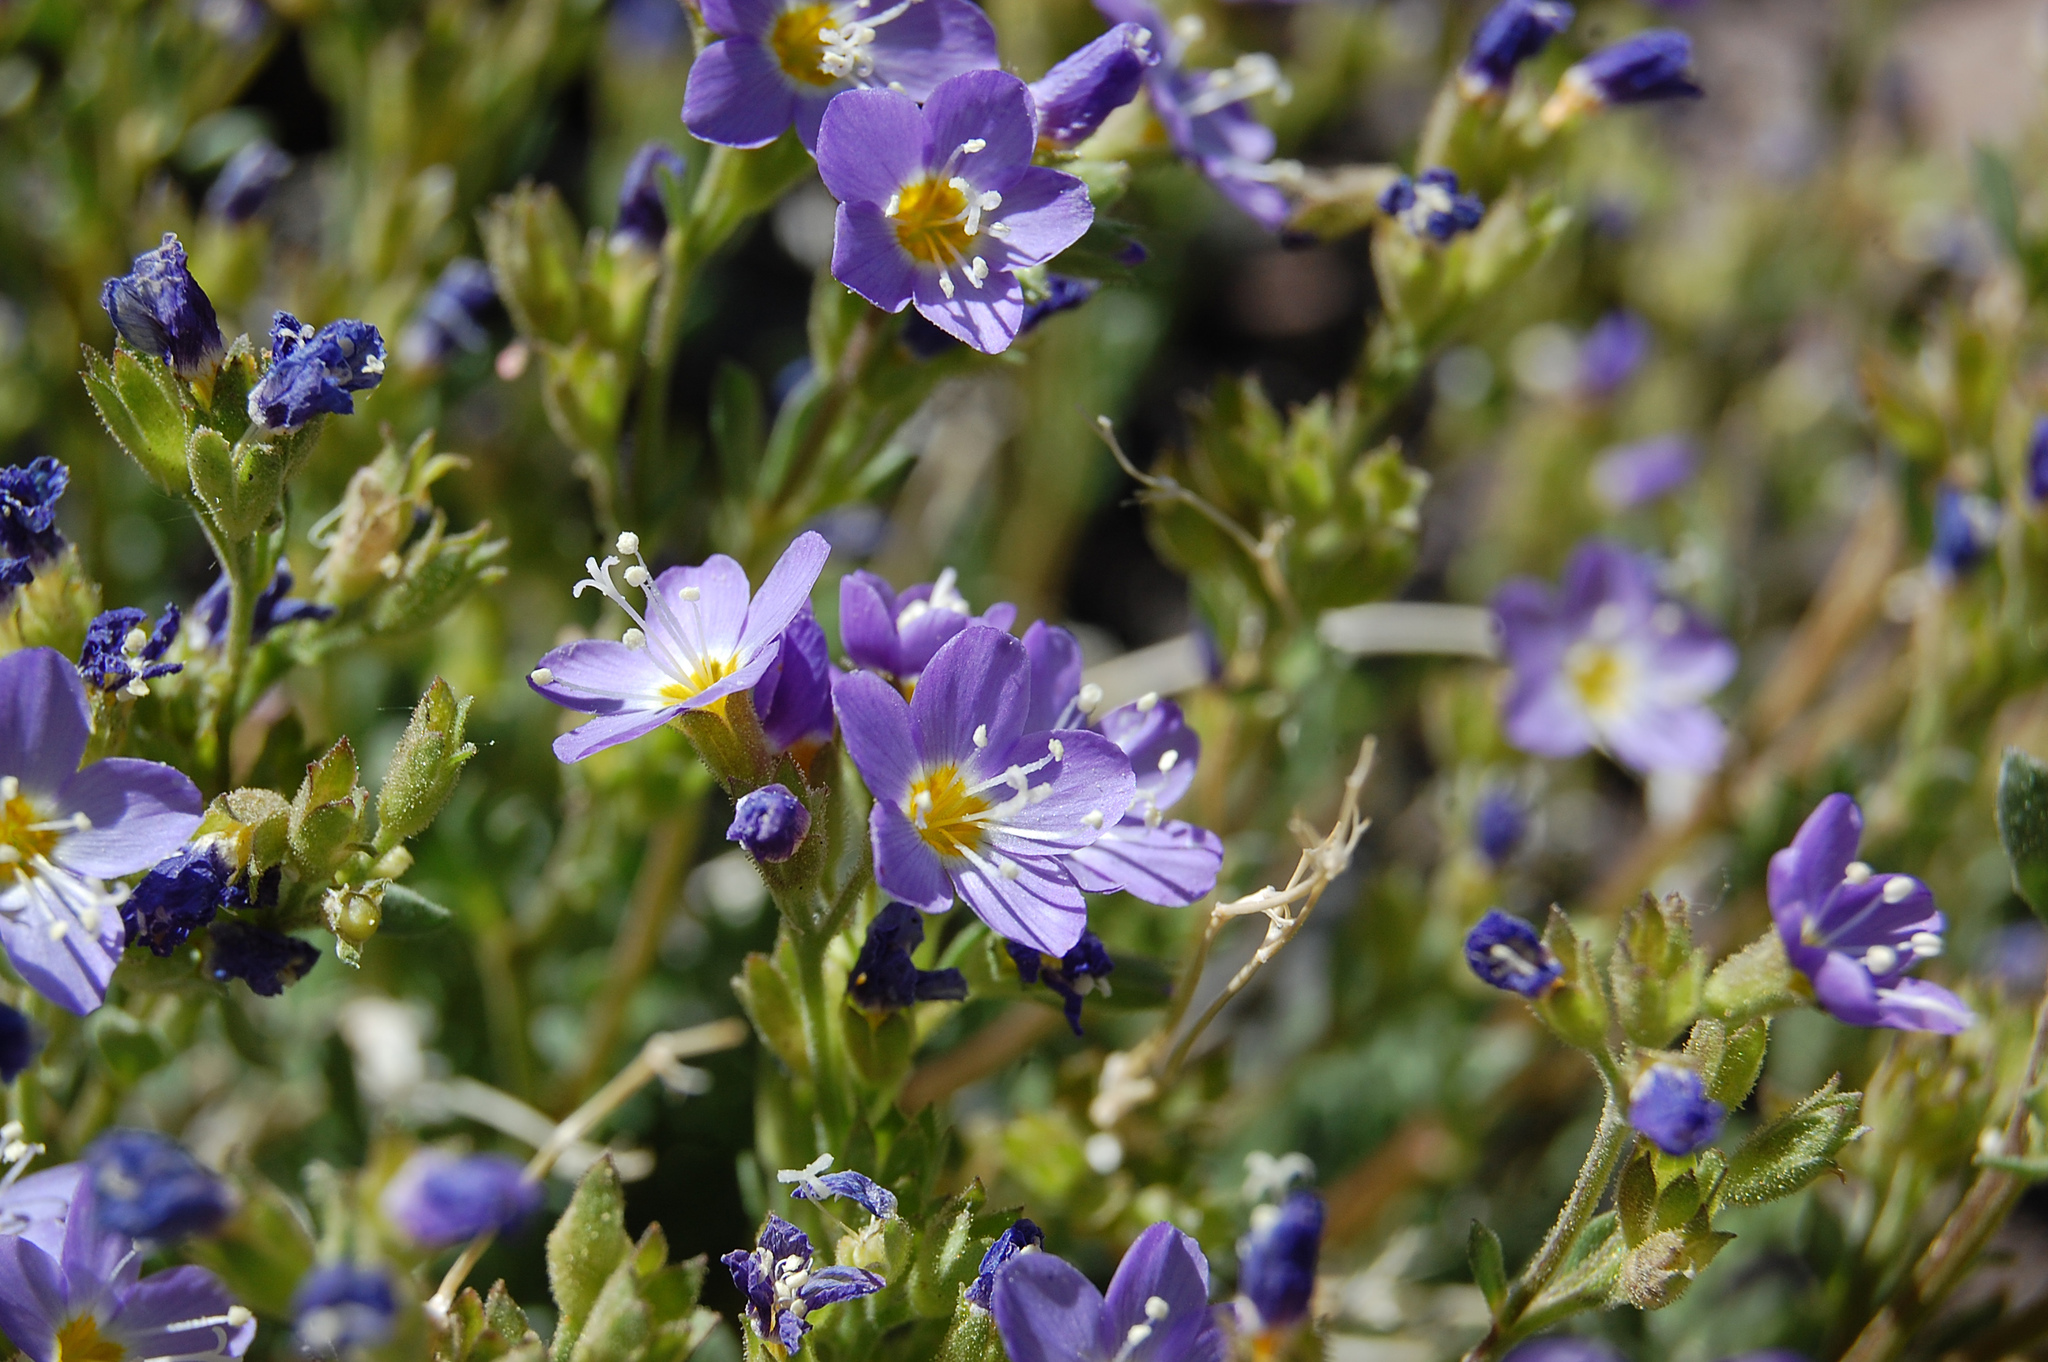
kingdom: Plantae
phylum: Tracheophyta
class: Magnoliopsida
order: Ericales
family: Polemoniaceae
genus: Polemonium
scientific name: Polemonium pulcherrimum
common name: Short jacob's-ladder
